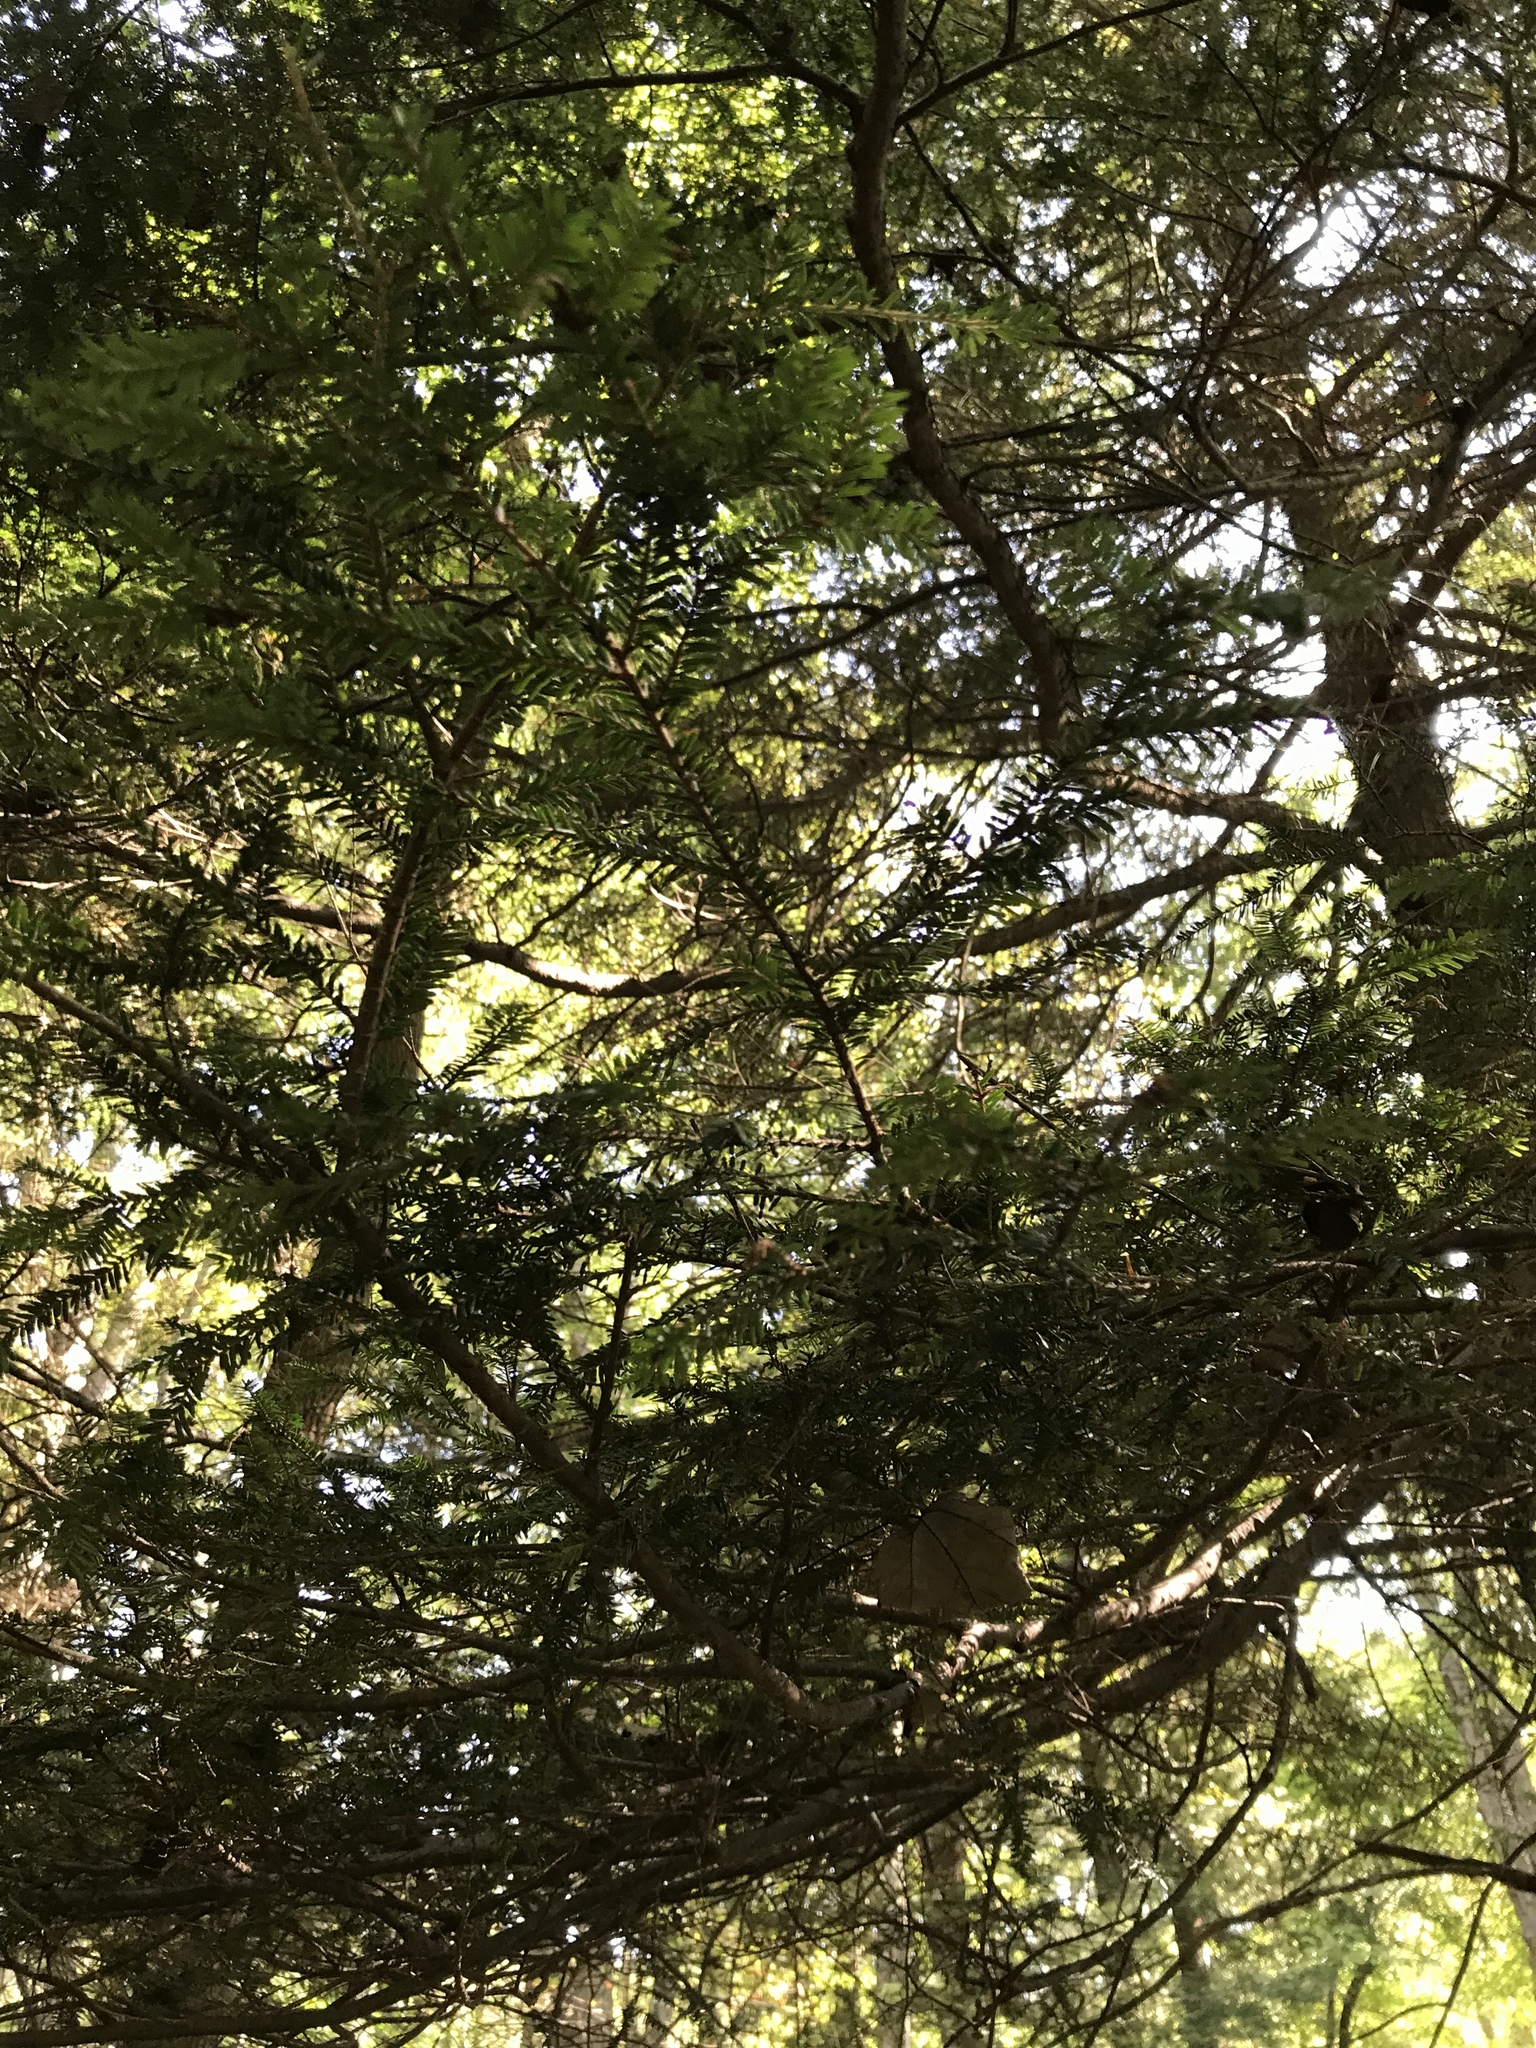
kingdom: Plantae
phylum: Tracheophyta
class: Pinopsida
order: Pinales
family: Pinaceae
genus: Tsuga
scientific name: Tsuga canadensis
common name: Eastern hemlock
